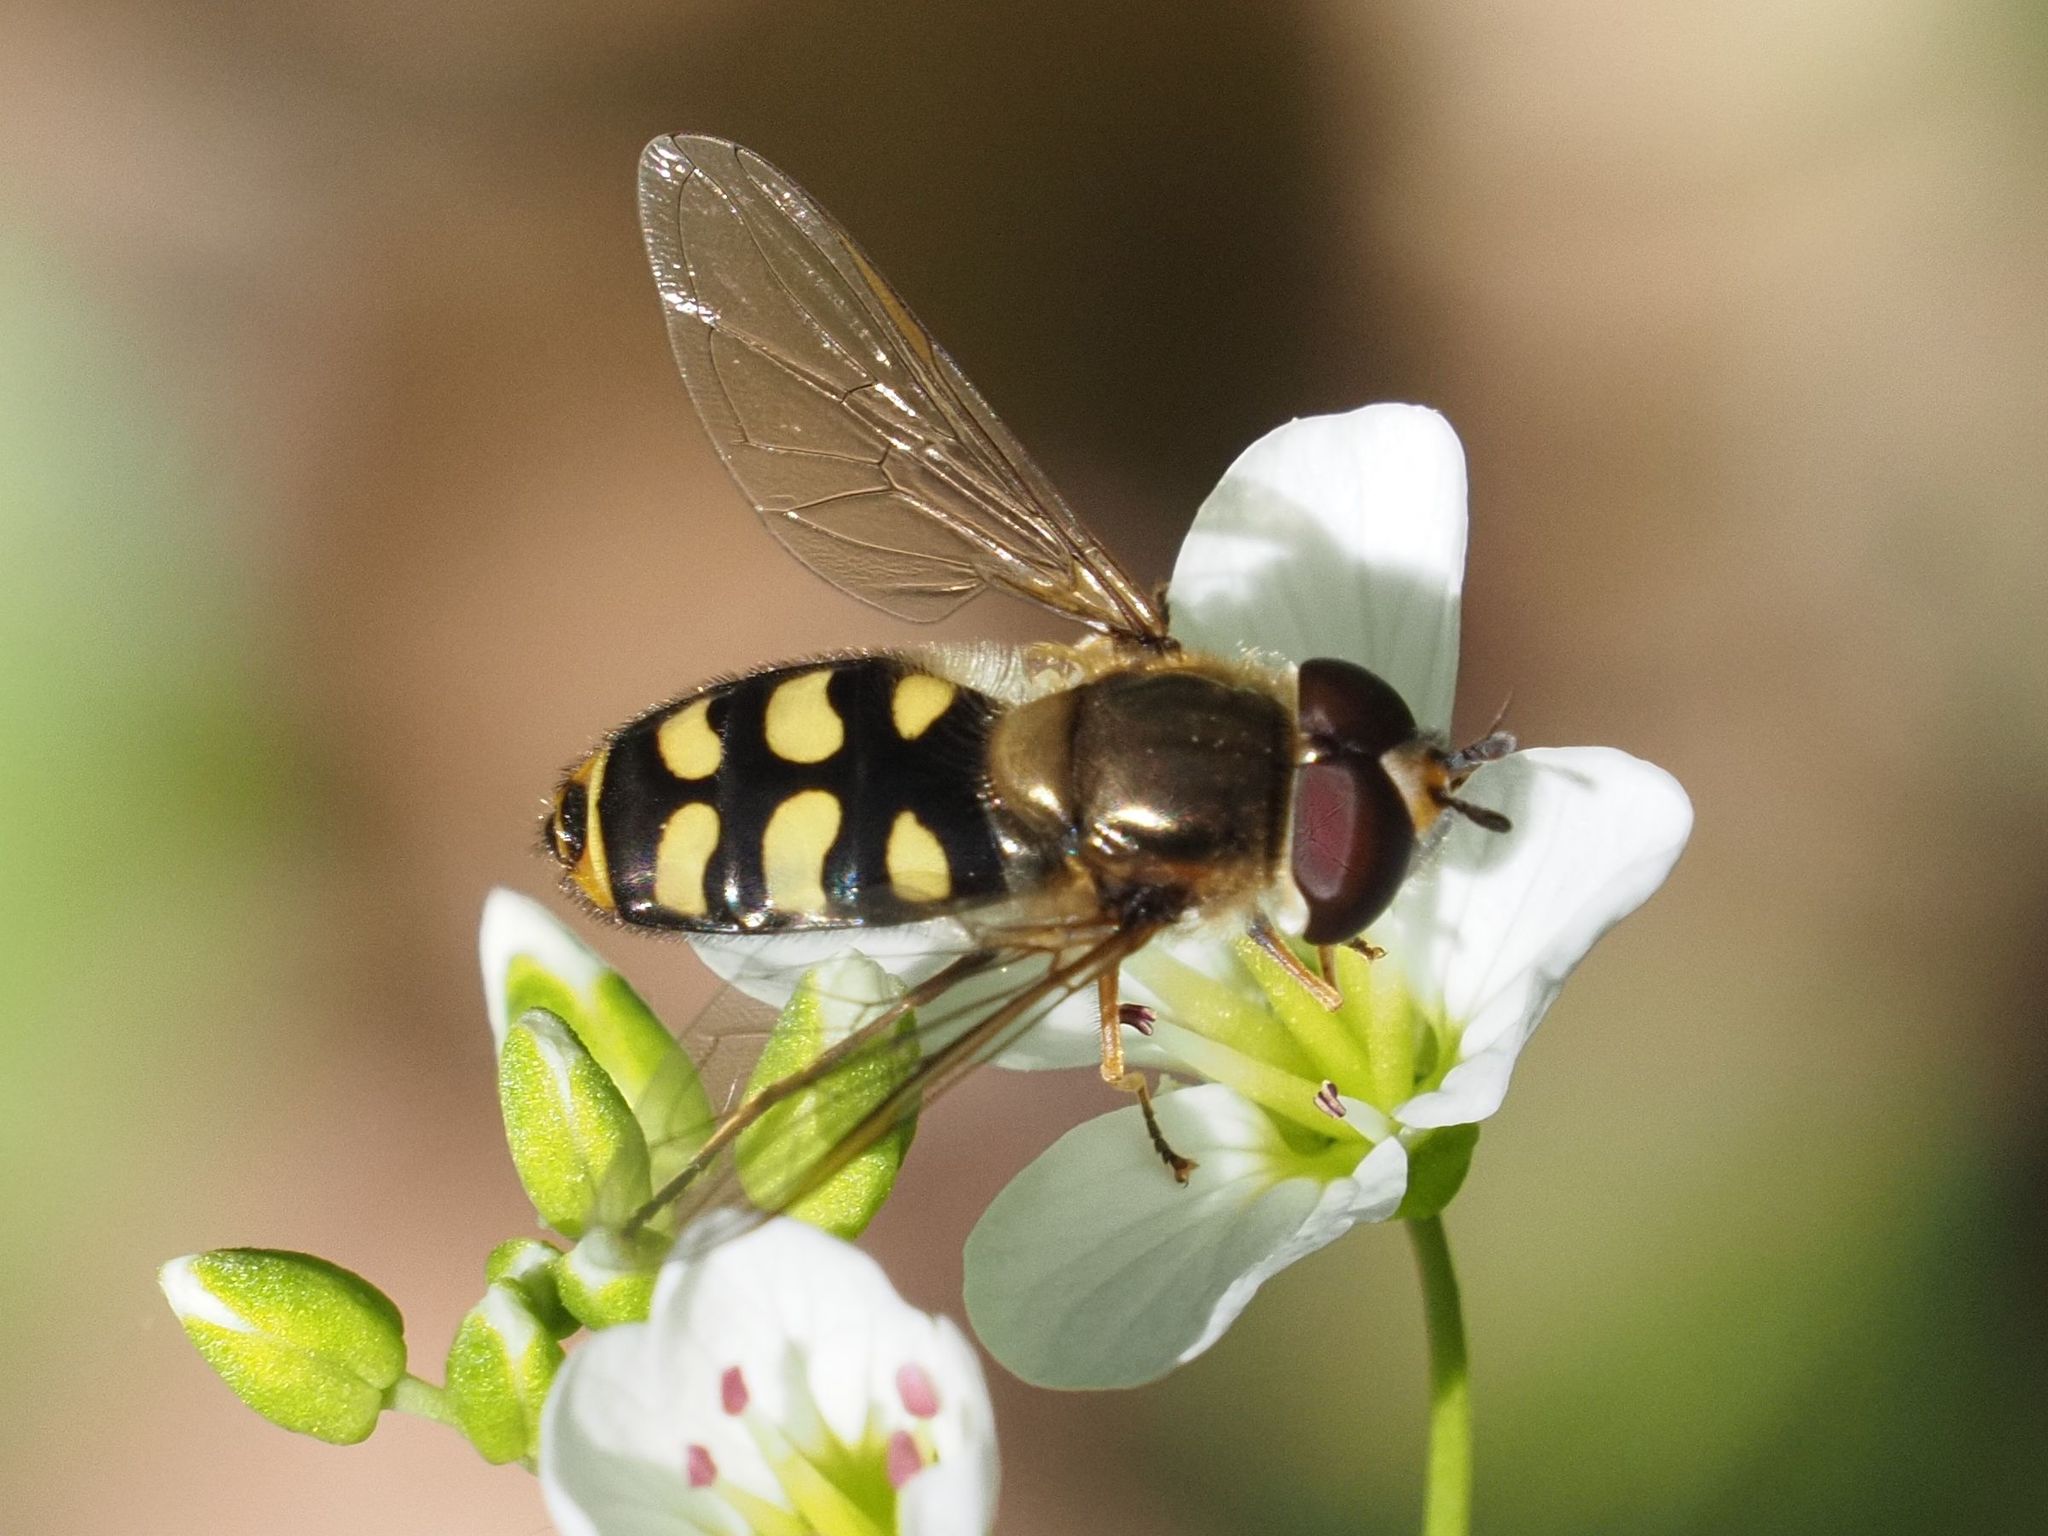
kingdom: Animalia
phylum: Arthropoda
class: Insecta
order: Diptera
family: Syrphidae
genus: Eupeodes
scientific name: Eupeodes luniger
